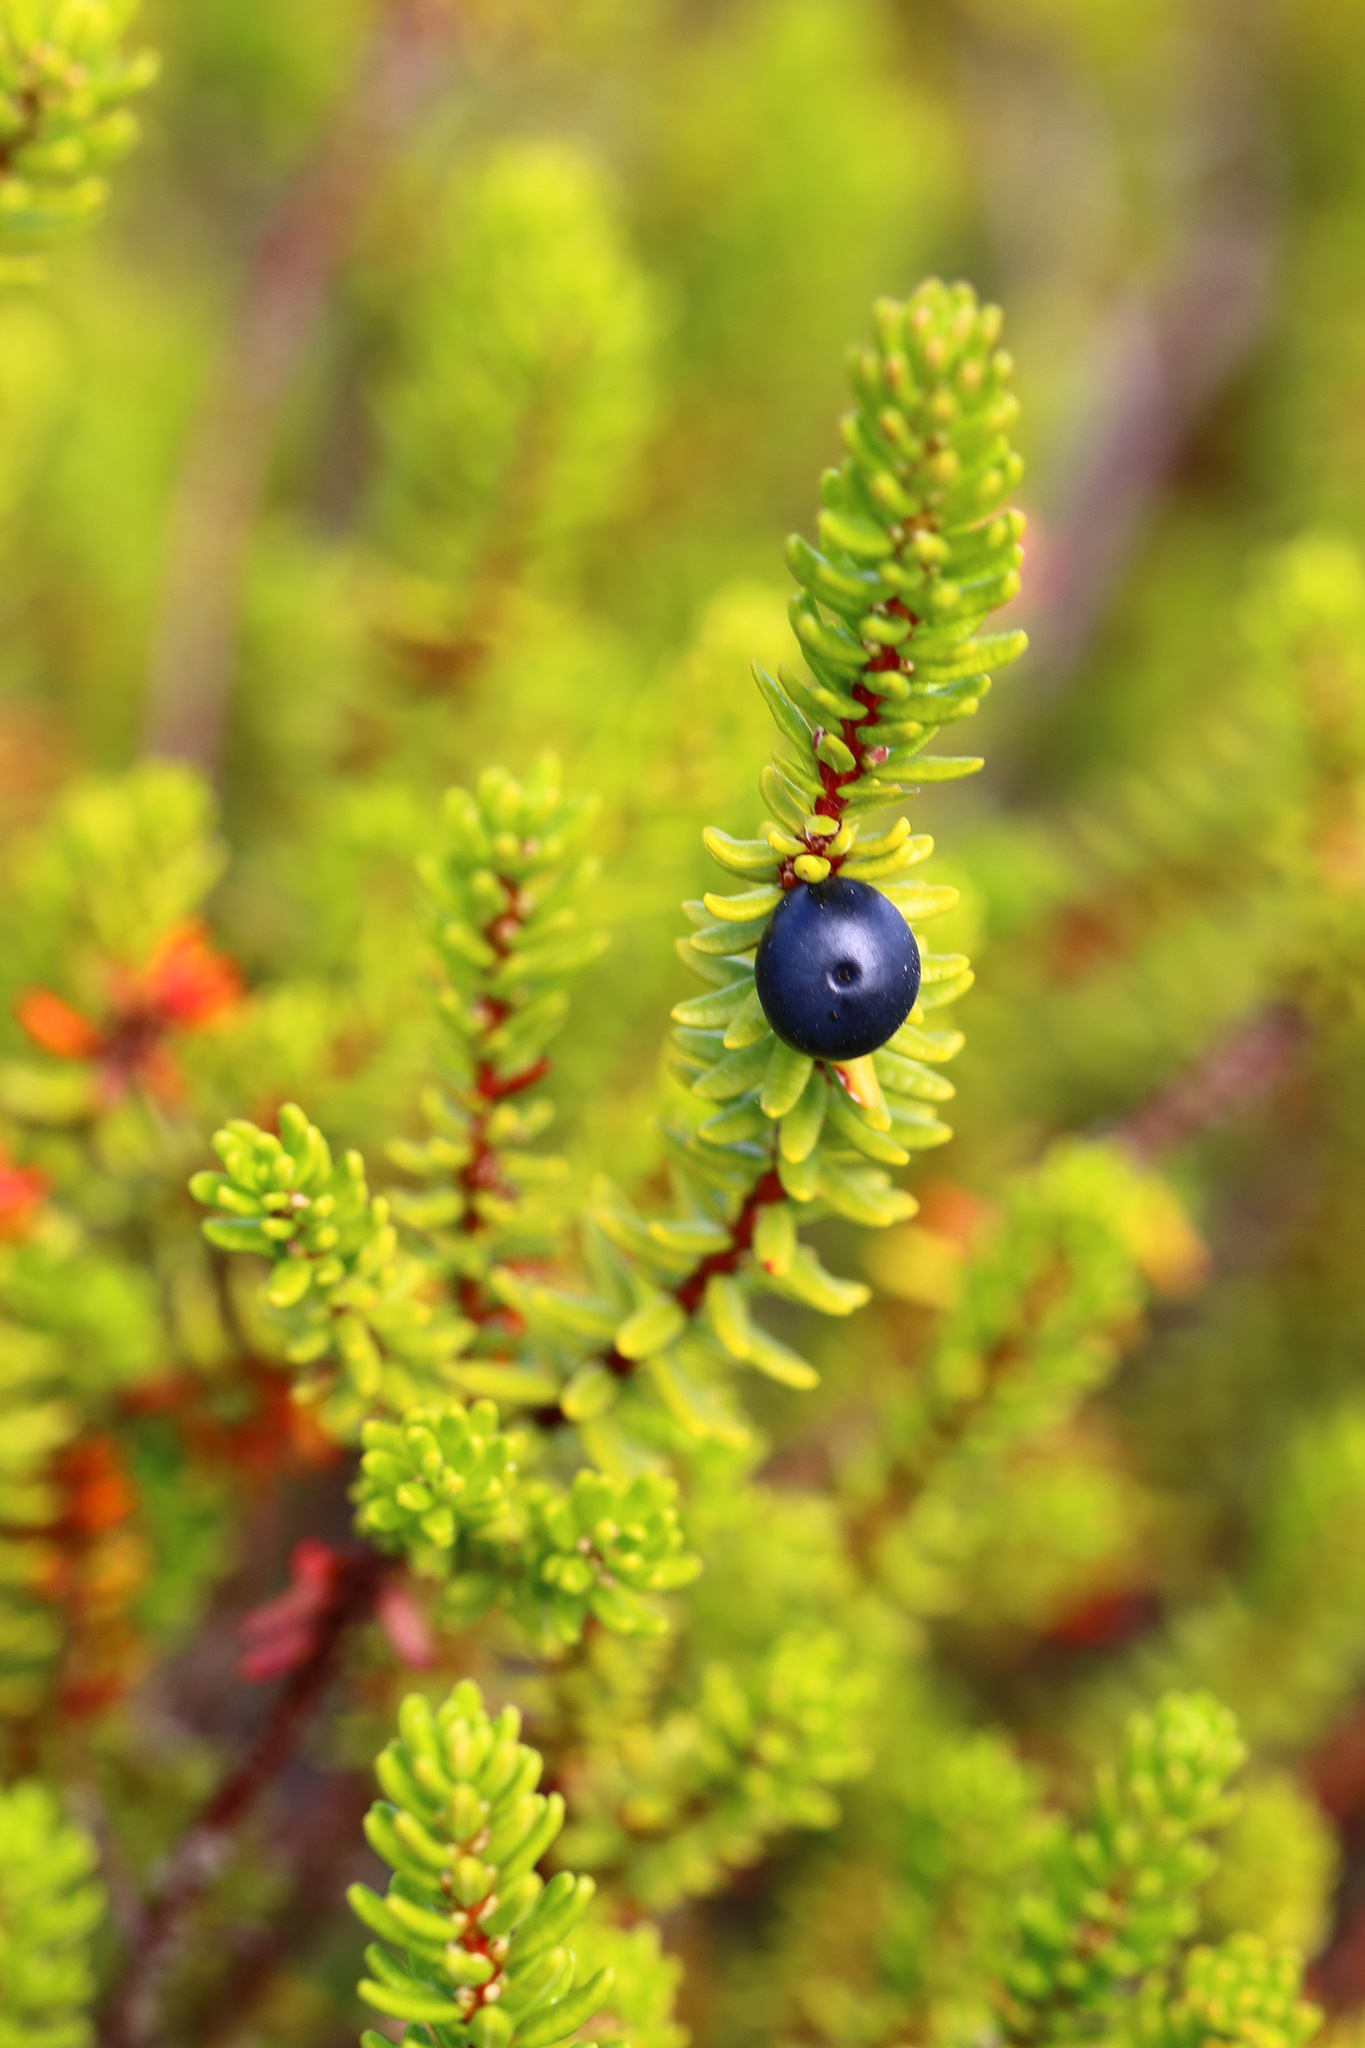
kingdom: Plantae
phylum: Tracheophyta
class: Magnoliopsida
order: Ericales
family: Ericaceae
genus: Empetrum
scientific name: Empetrum nigrum
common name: Black crowberry
